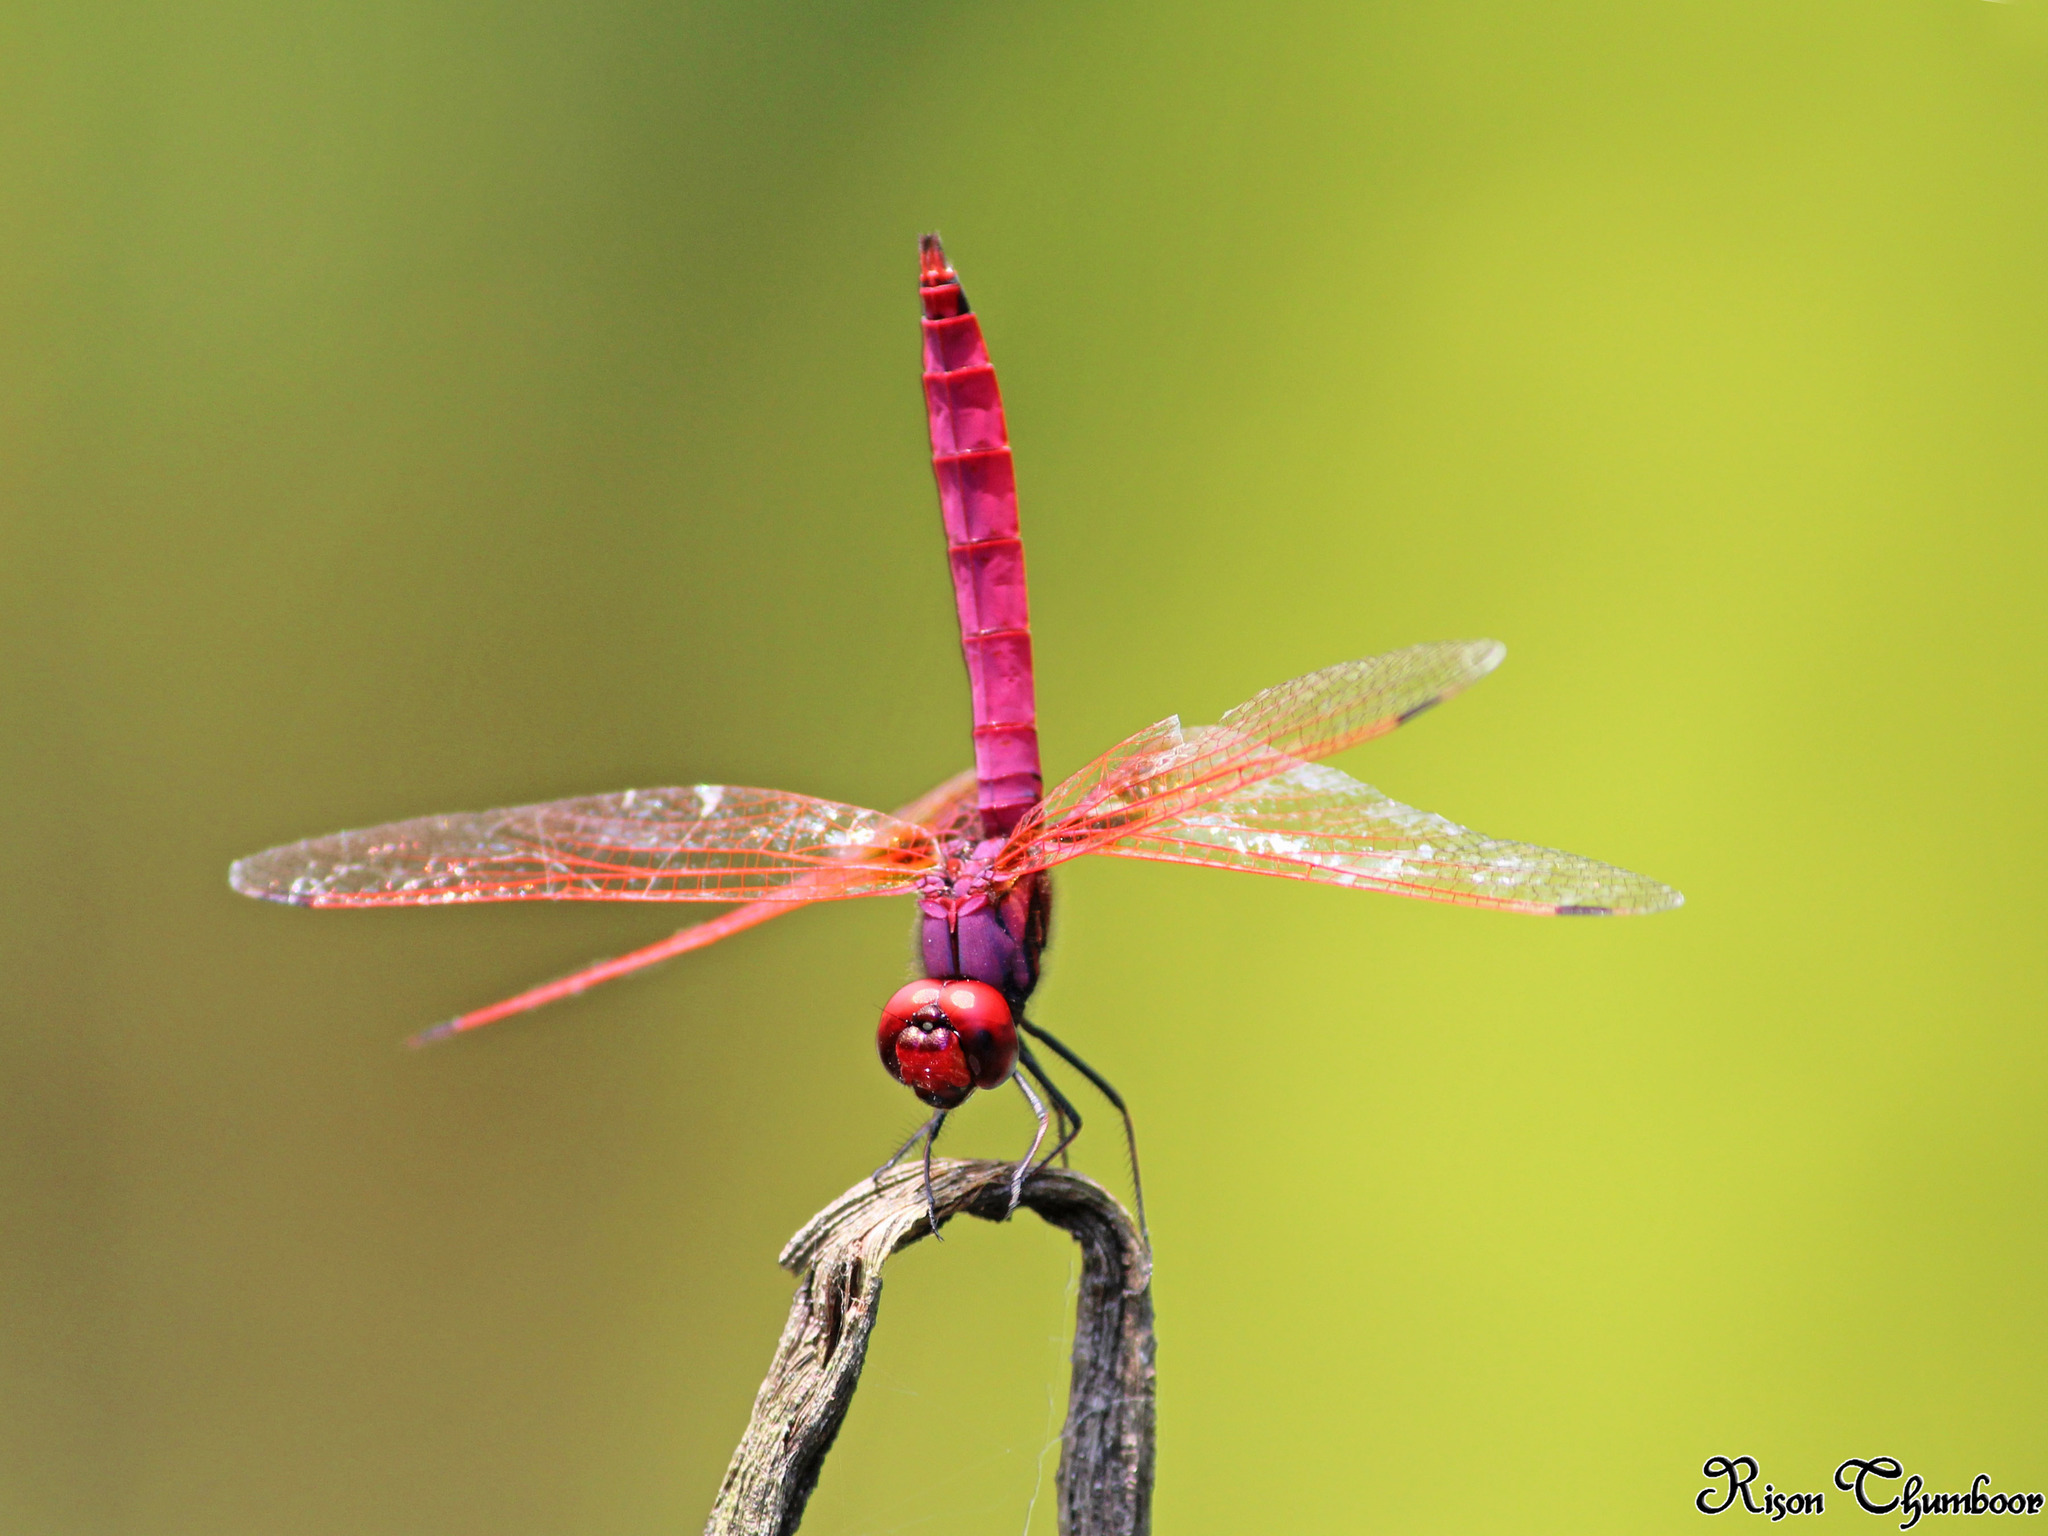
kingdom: Animalia
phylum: Arthropoda
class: Insecta
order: Odonata
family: Libellulidae
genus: Trithemis
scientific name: Trithemis aurora
